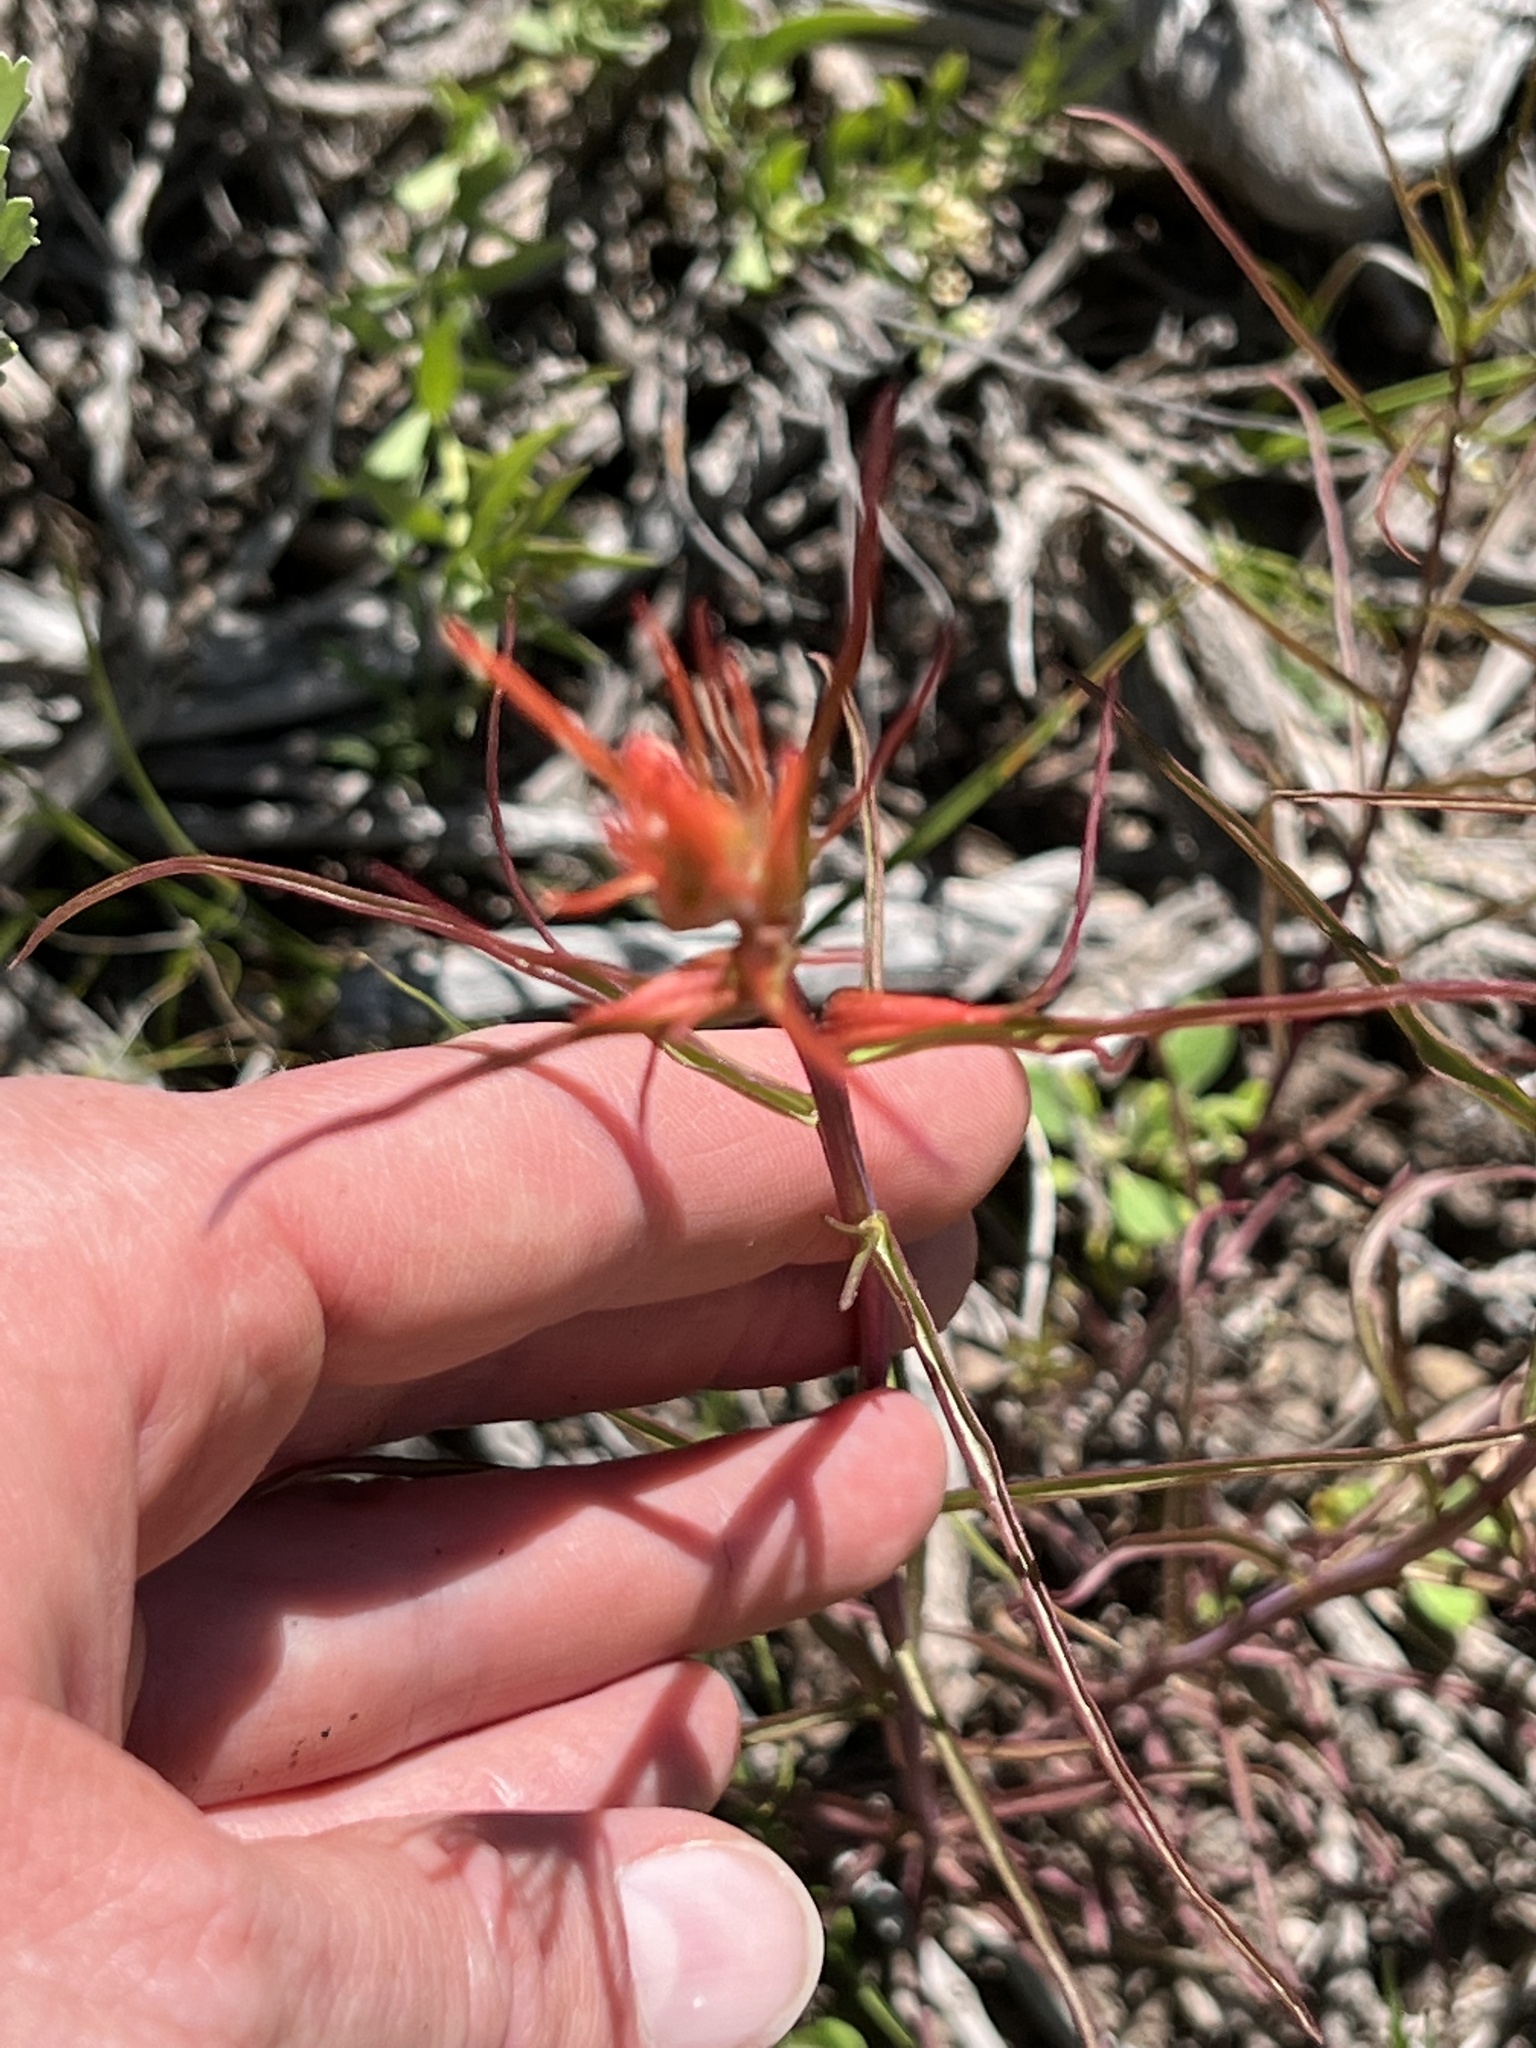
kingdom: Plantae
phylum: Tracheophyta
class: Magnoliopsida
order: Lamiales
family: Orobanchaceae
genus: Castilleja
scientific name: Castilleja minor
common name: Seep paintbrush
